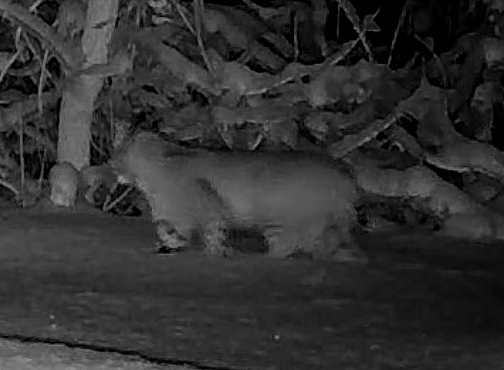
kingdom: Animalia
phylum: Chordata
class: Mammalia
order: Carnivora
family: Felidae
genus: Lynx
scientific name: Lynx rufus
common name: Bobcat
